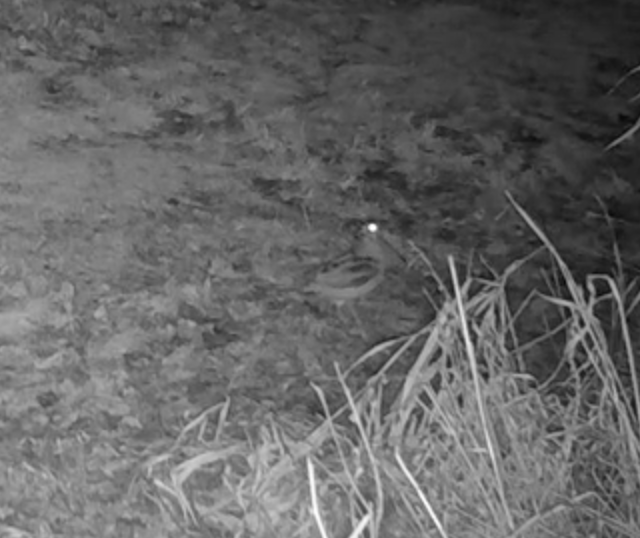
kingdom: Animalia
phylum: Chordata
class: Aves
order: Charadriiformes
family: Scolopacidae
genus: Scolopax
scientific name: Scolopax minor
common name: American woodcock
